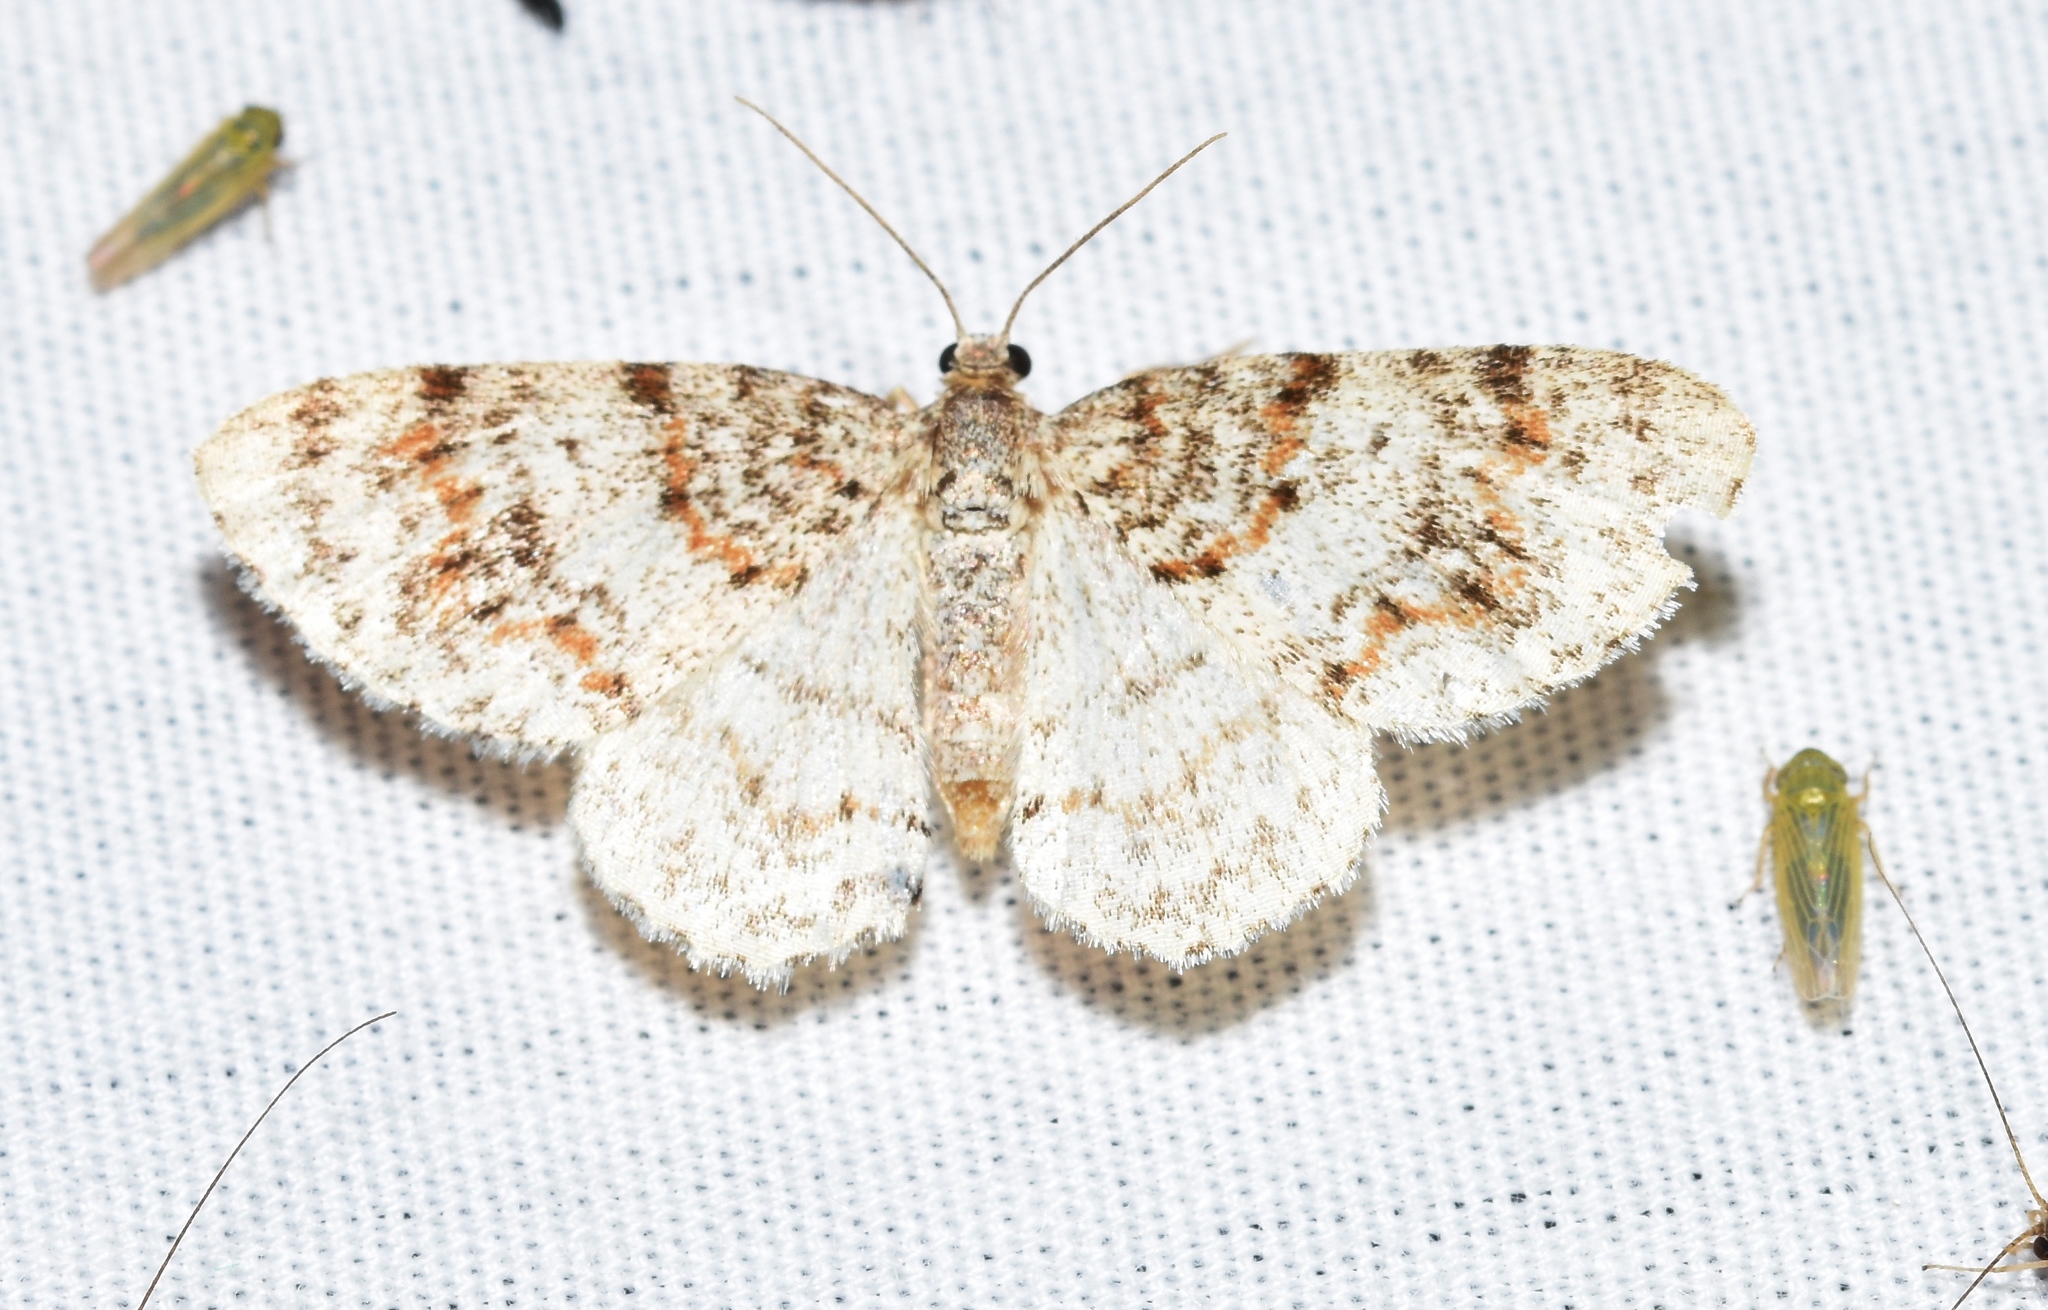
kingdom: Animalia
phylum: Arthropoda
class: Insecta
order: Lepidoptera
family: Geometridae
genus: Hydrelia
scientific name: Hydrelia inornata
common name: Unadorned carpet moth
